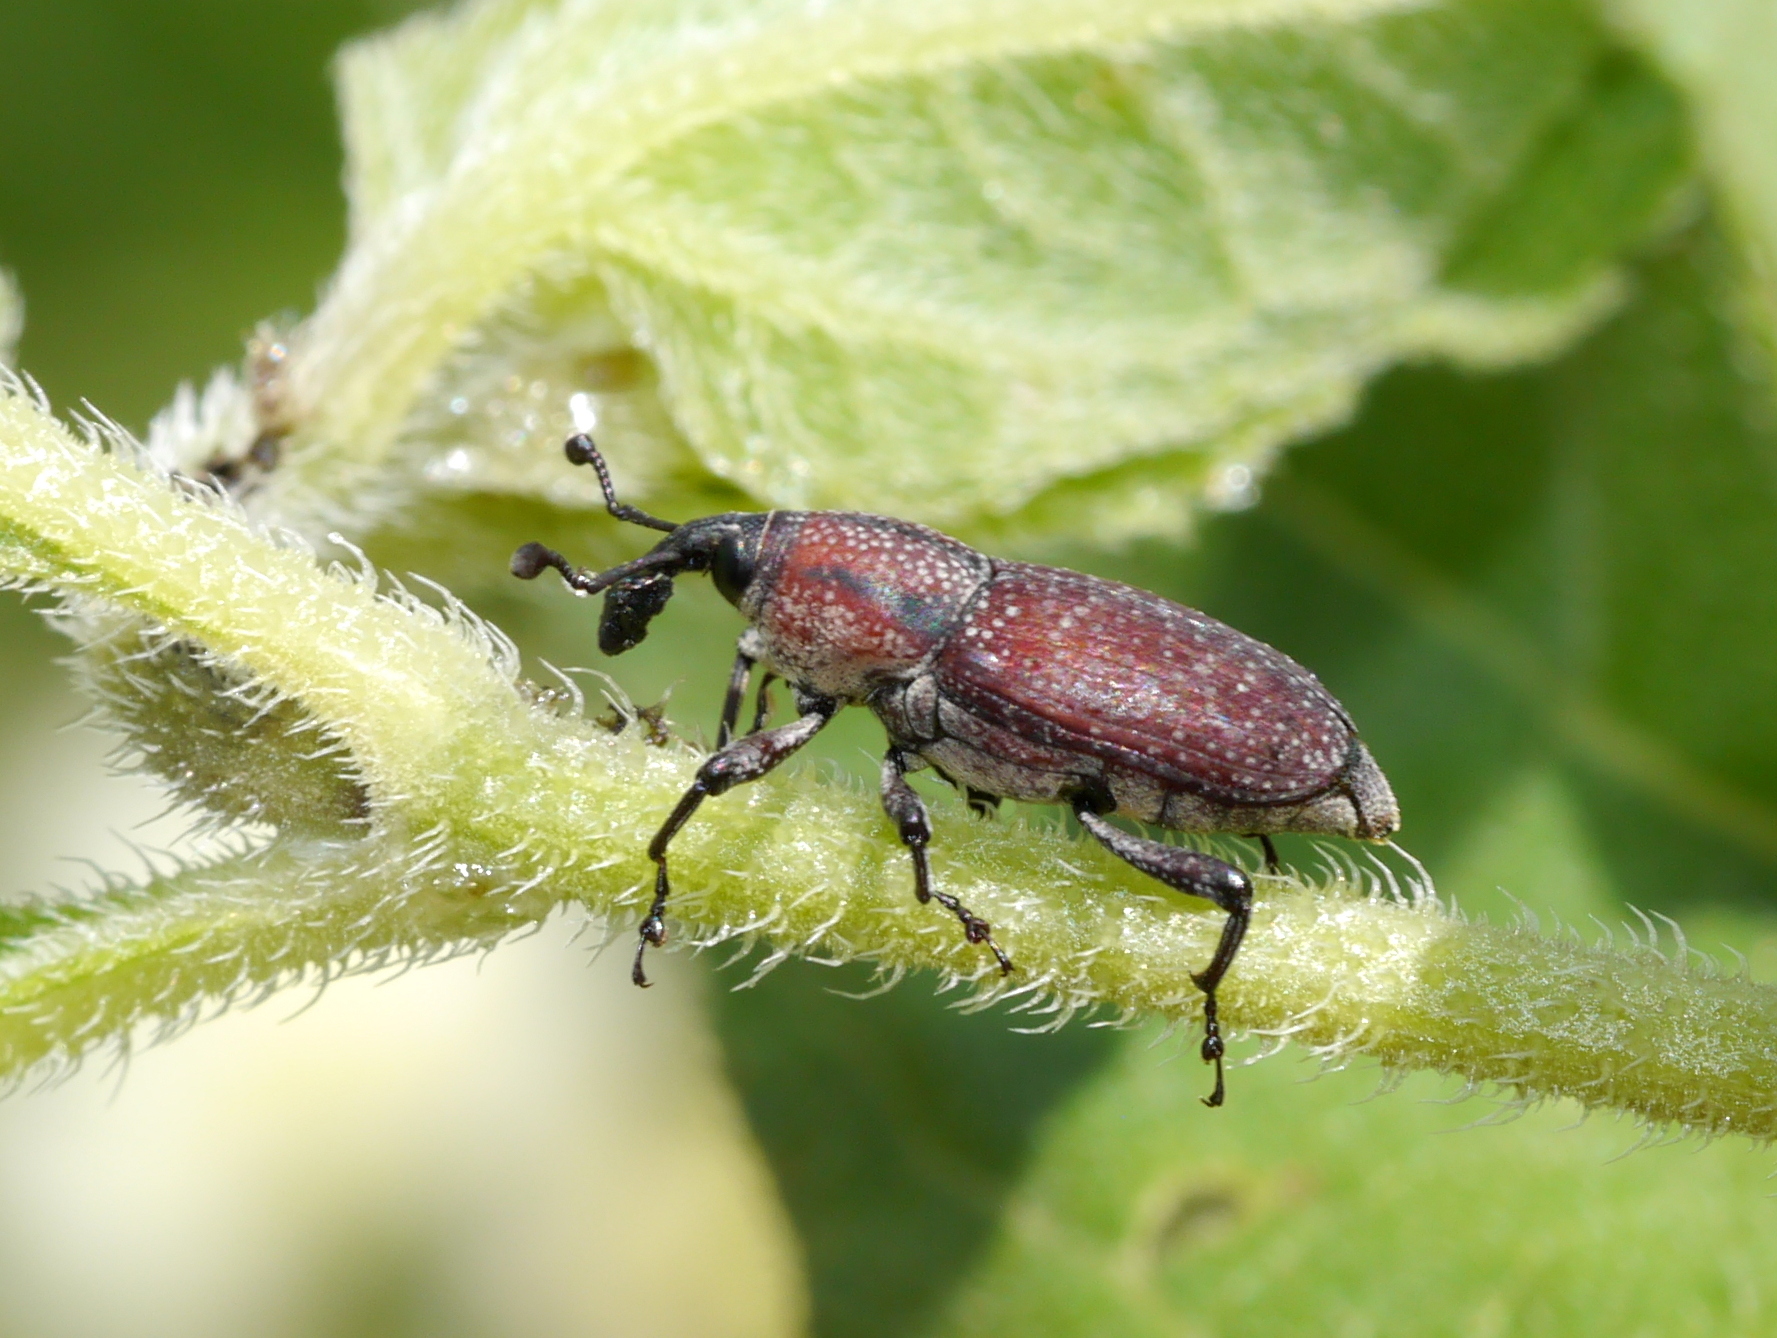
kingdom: Animalia
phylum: Arthropoda
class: Insecta
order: Coleoptera
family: Dryophthoridae
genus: Rhodobaenus
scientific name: Rhodobaenus pustulosus
